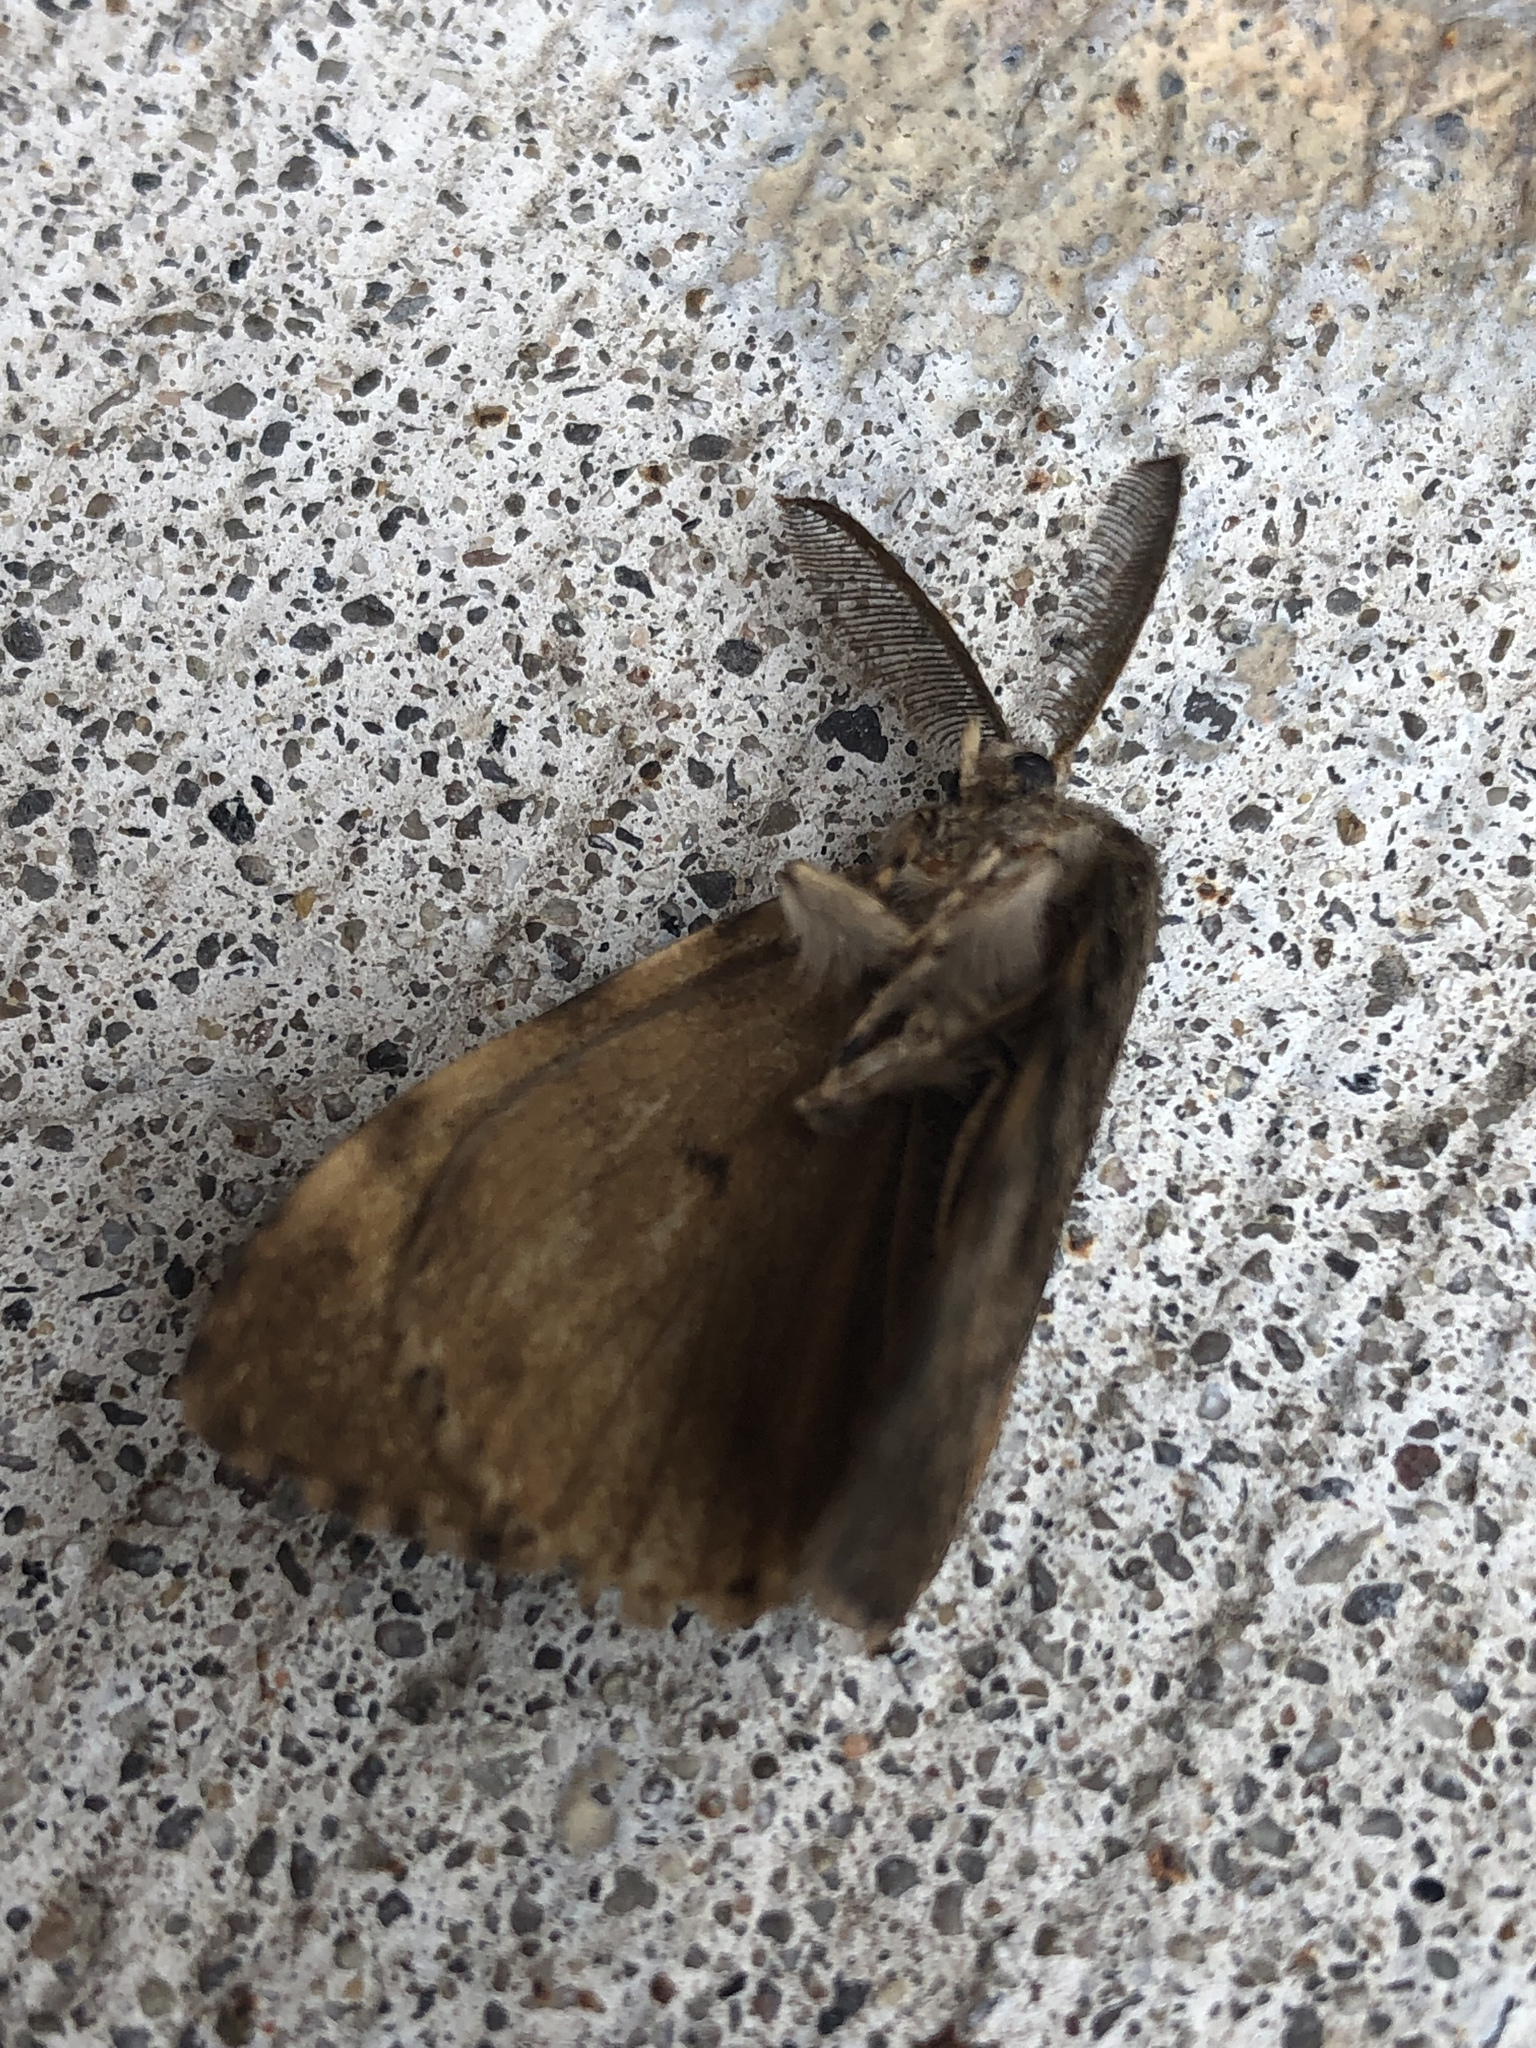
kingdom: Animalia
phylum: Arthropoda
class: Insecta
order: Lepidoptera
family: Erebidae
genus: Lymantria
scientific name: Lymantria dispar
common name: Gypsy moth
